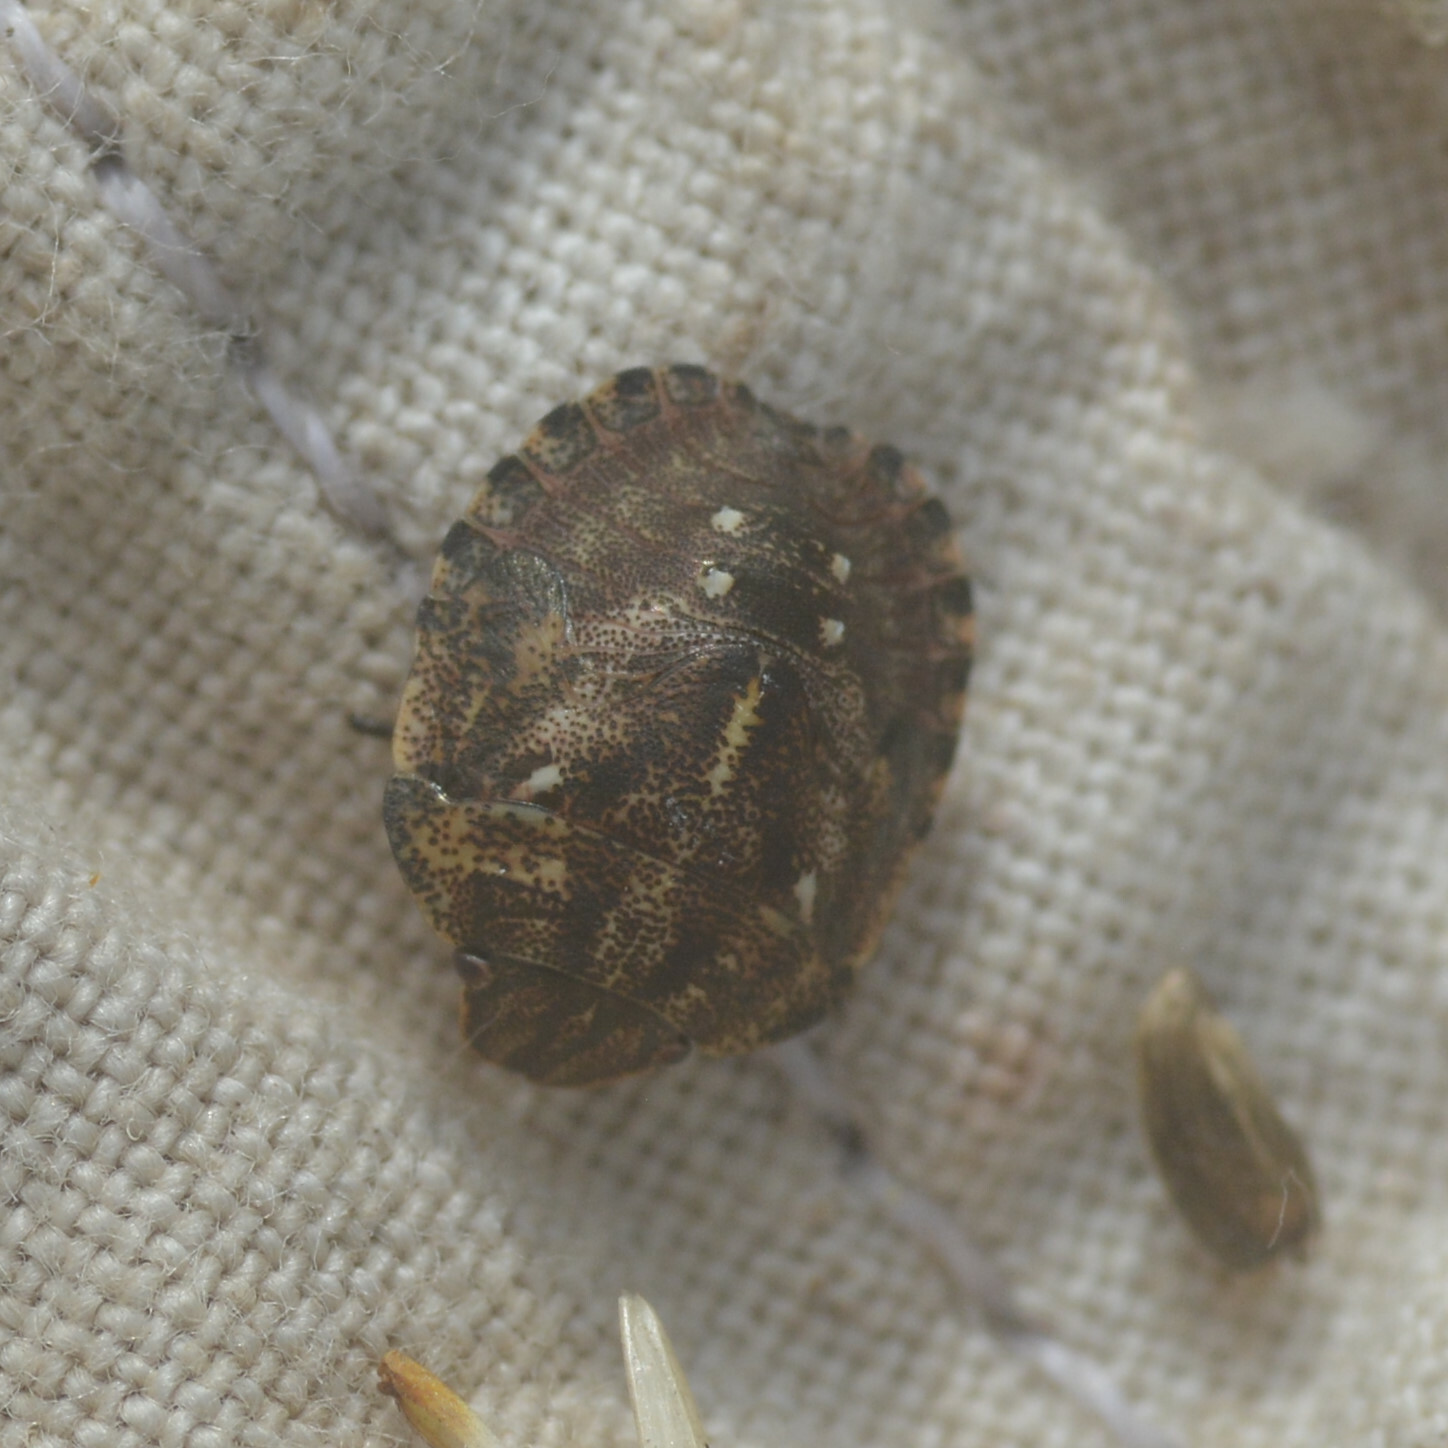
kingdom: Animalia
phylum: Arthropoda
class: Insecta
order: Hemiptera
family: Scutelleridae
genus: Eurygaster
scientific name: Eurygaster testudinaria
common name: Tortoise bug
